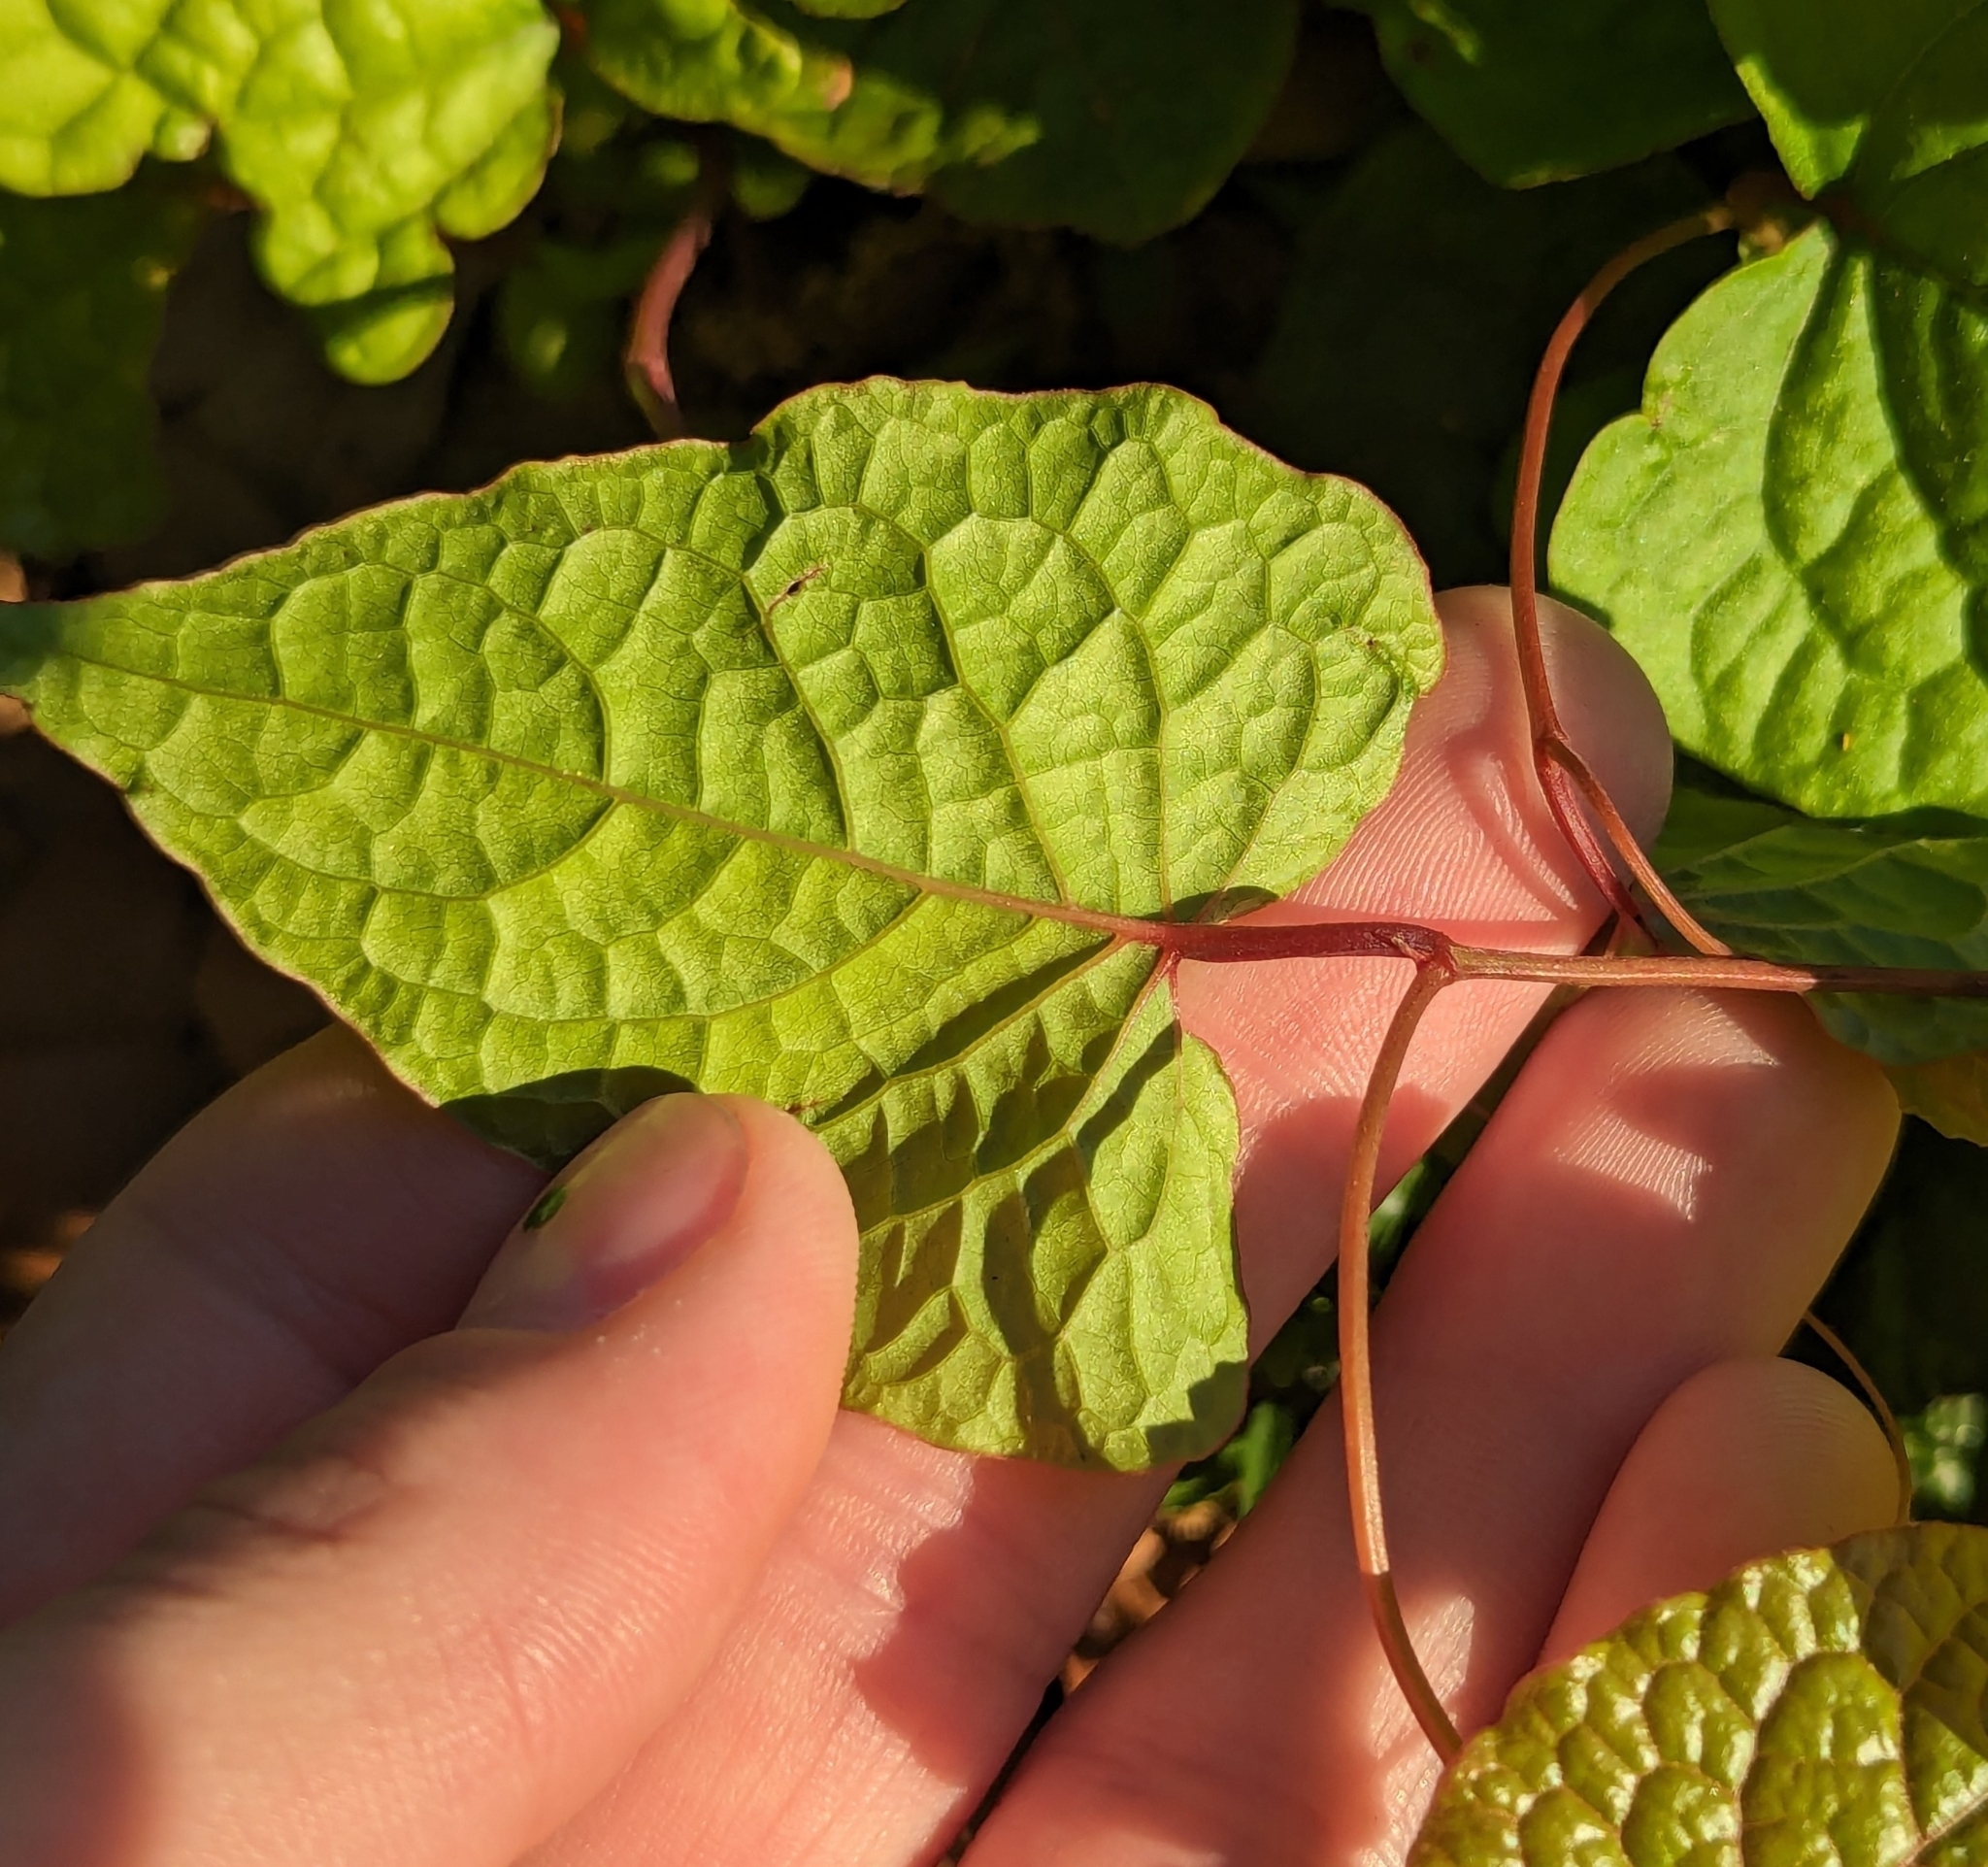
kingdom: Plantae
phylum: Tracheophyta
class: Magnoliopsida
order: Caryophyllales
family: Polygonaceae
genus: Antigonon
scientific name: Antigonon leptopus
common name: Coral vine
